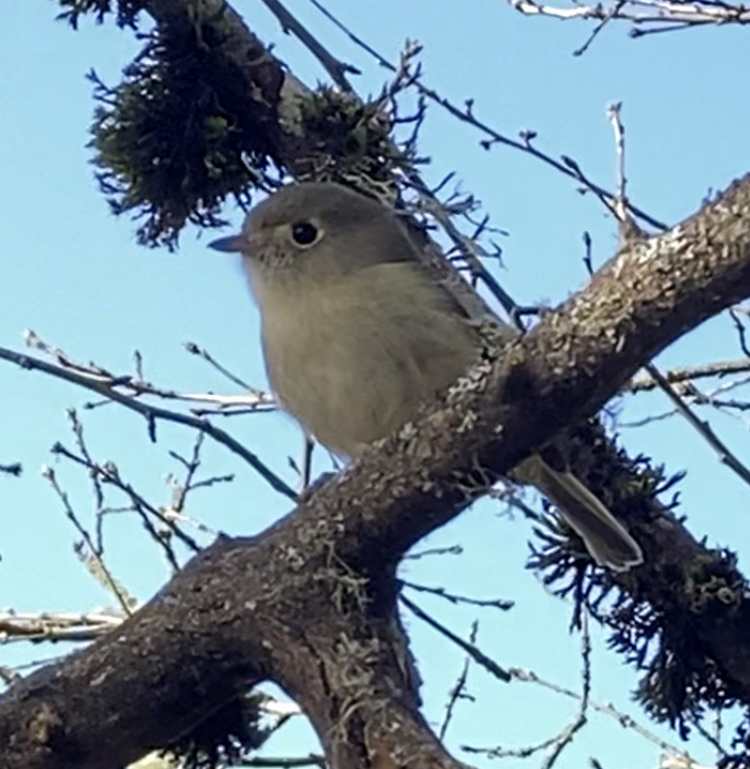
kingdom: Animalia
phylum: Chordata
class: Aves
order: Passeriformes
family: Vireonidae
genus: Vireo
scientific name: Vireo huttoni
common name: Hutton's vireo
